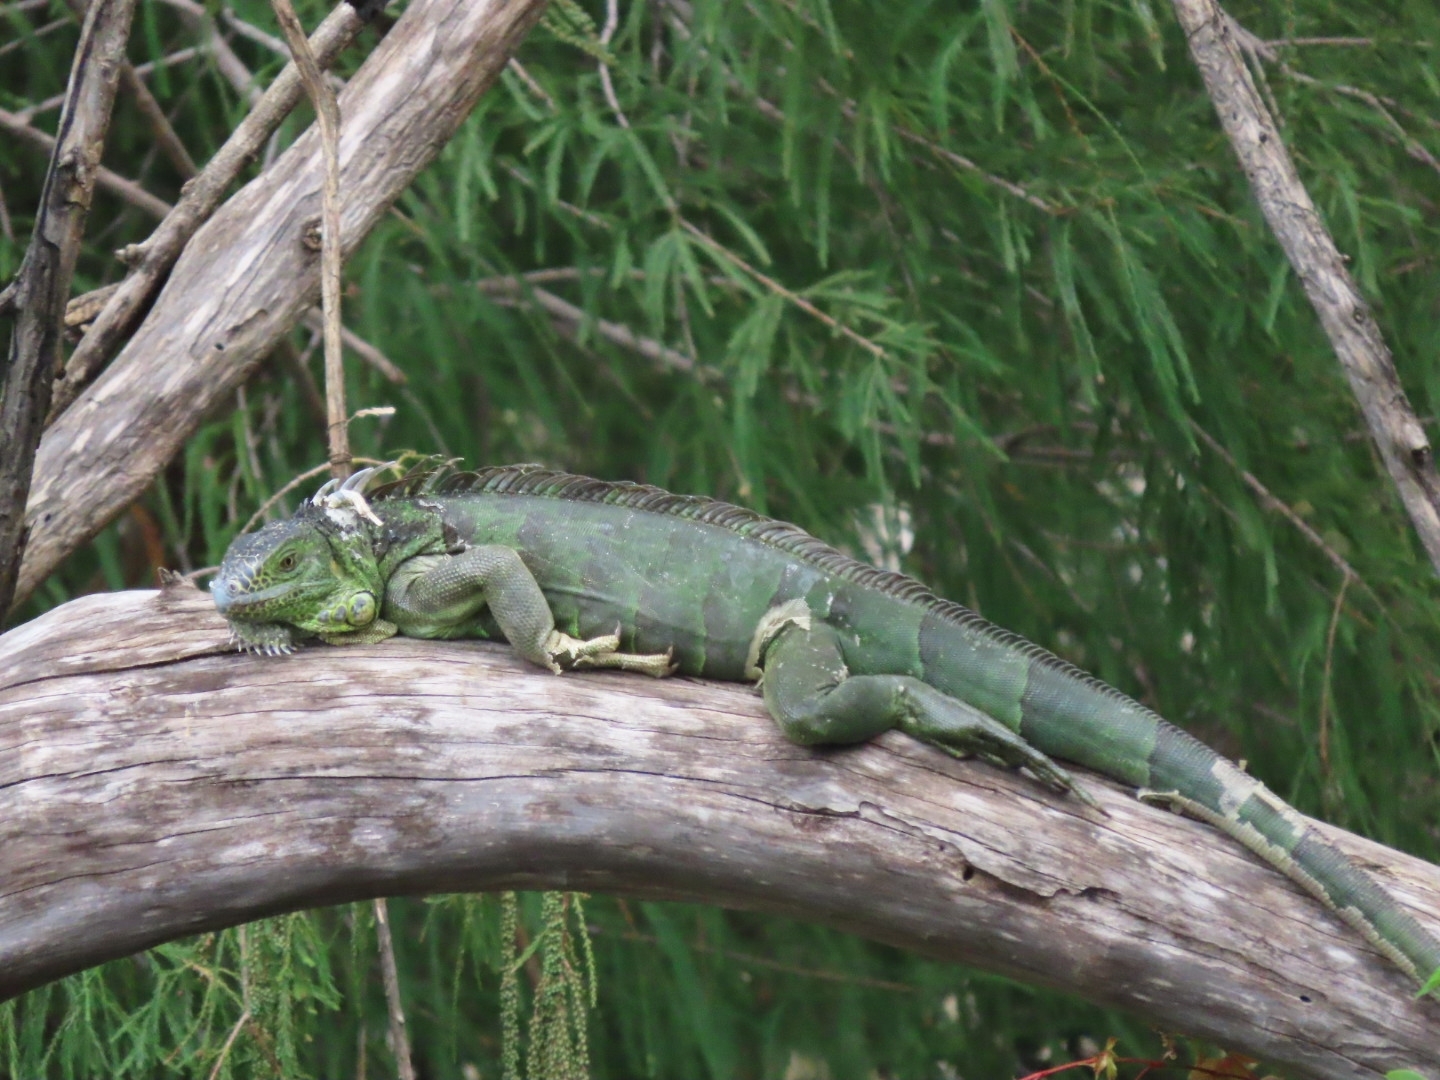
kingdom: Animalia
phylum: Chordata
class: Squamata
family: Iguanidae
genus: Iguana
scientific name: Iguana iguana
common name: Green iguana
